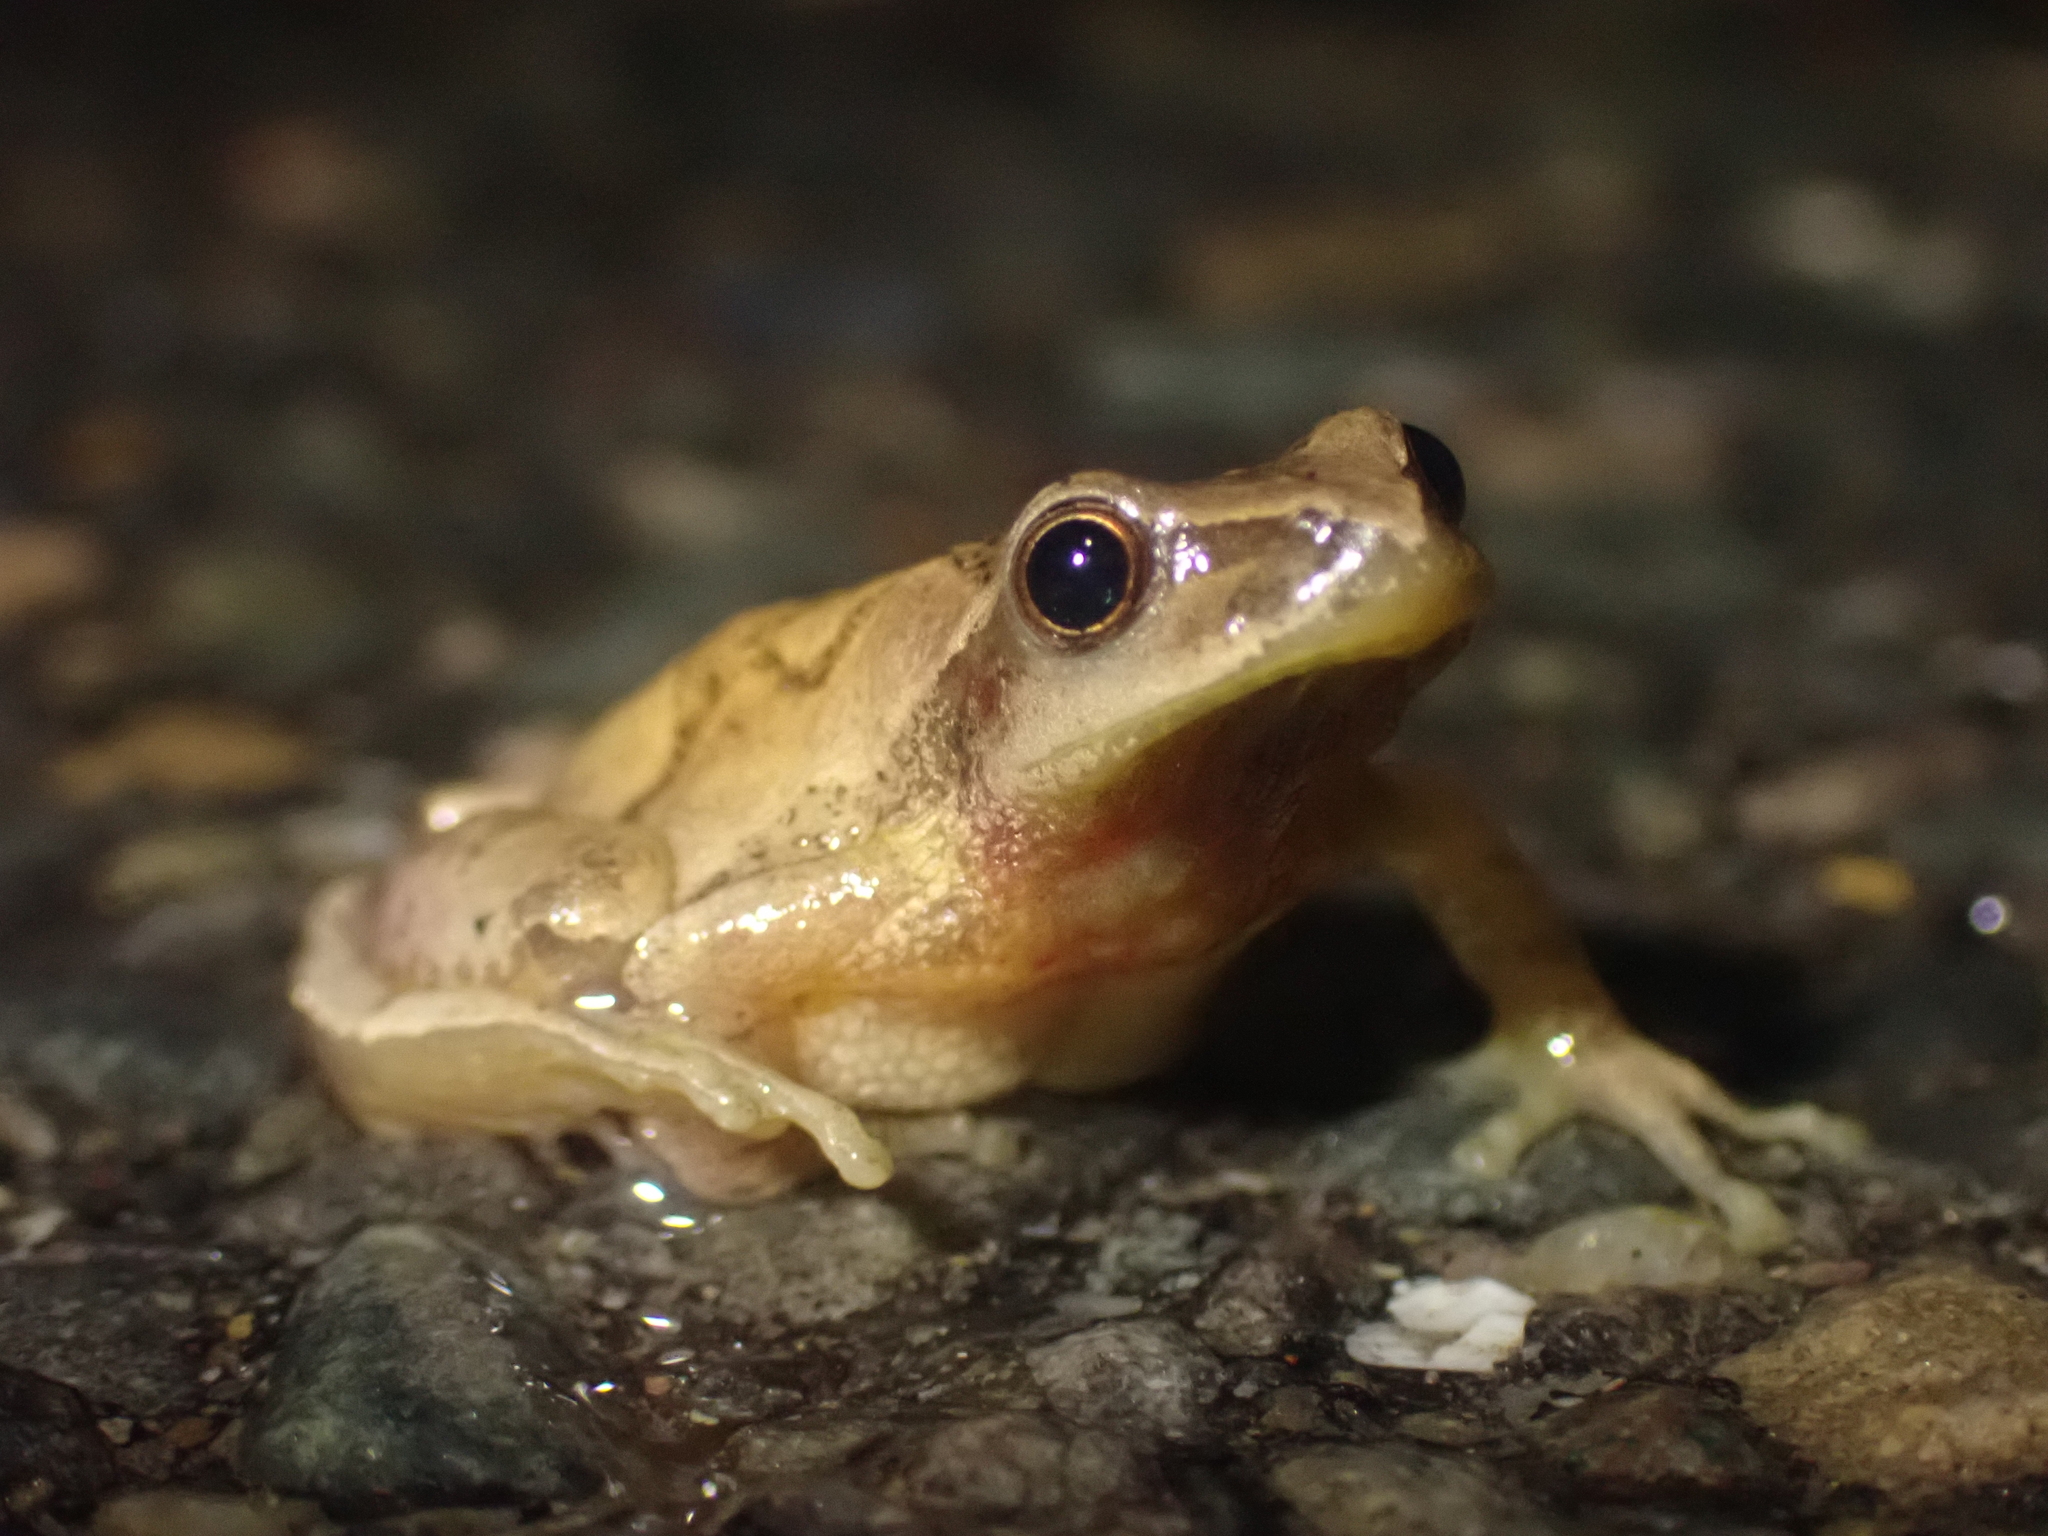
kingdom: Animalia
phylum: Chordata
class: Amphibia
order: Anura
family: Hylidae
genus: Pseudacris
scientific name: Pseudacris crucifer
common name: Spring peeper
